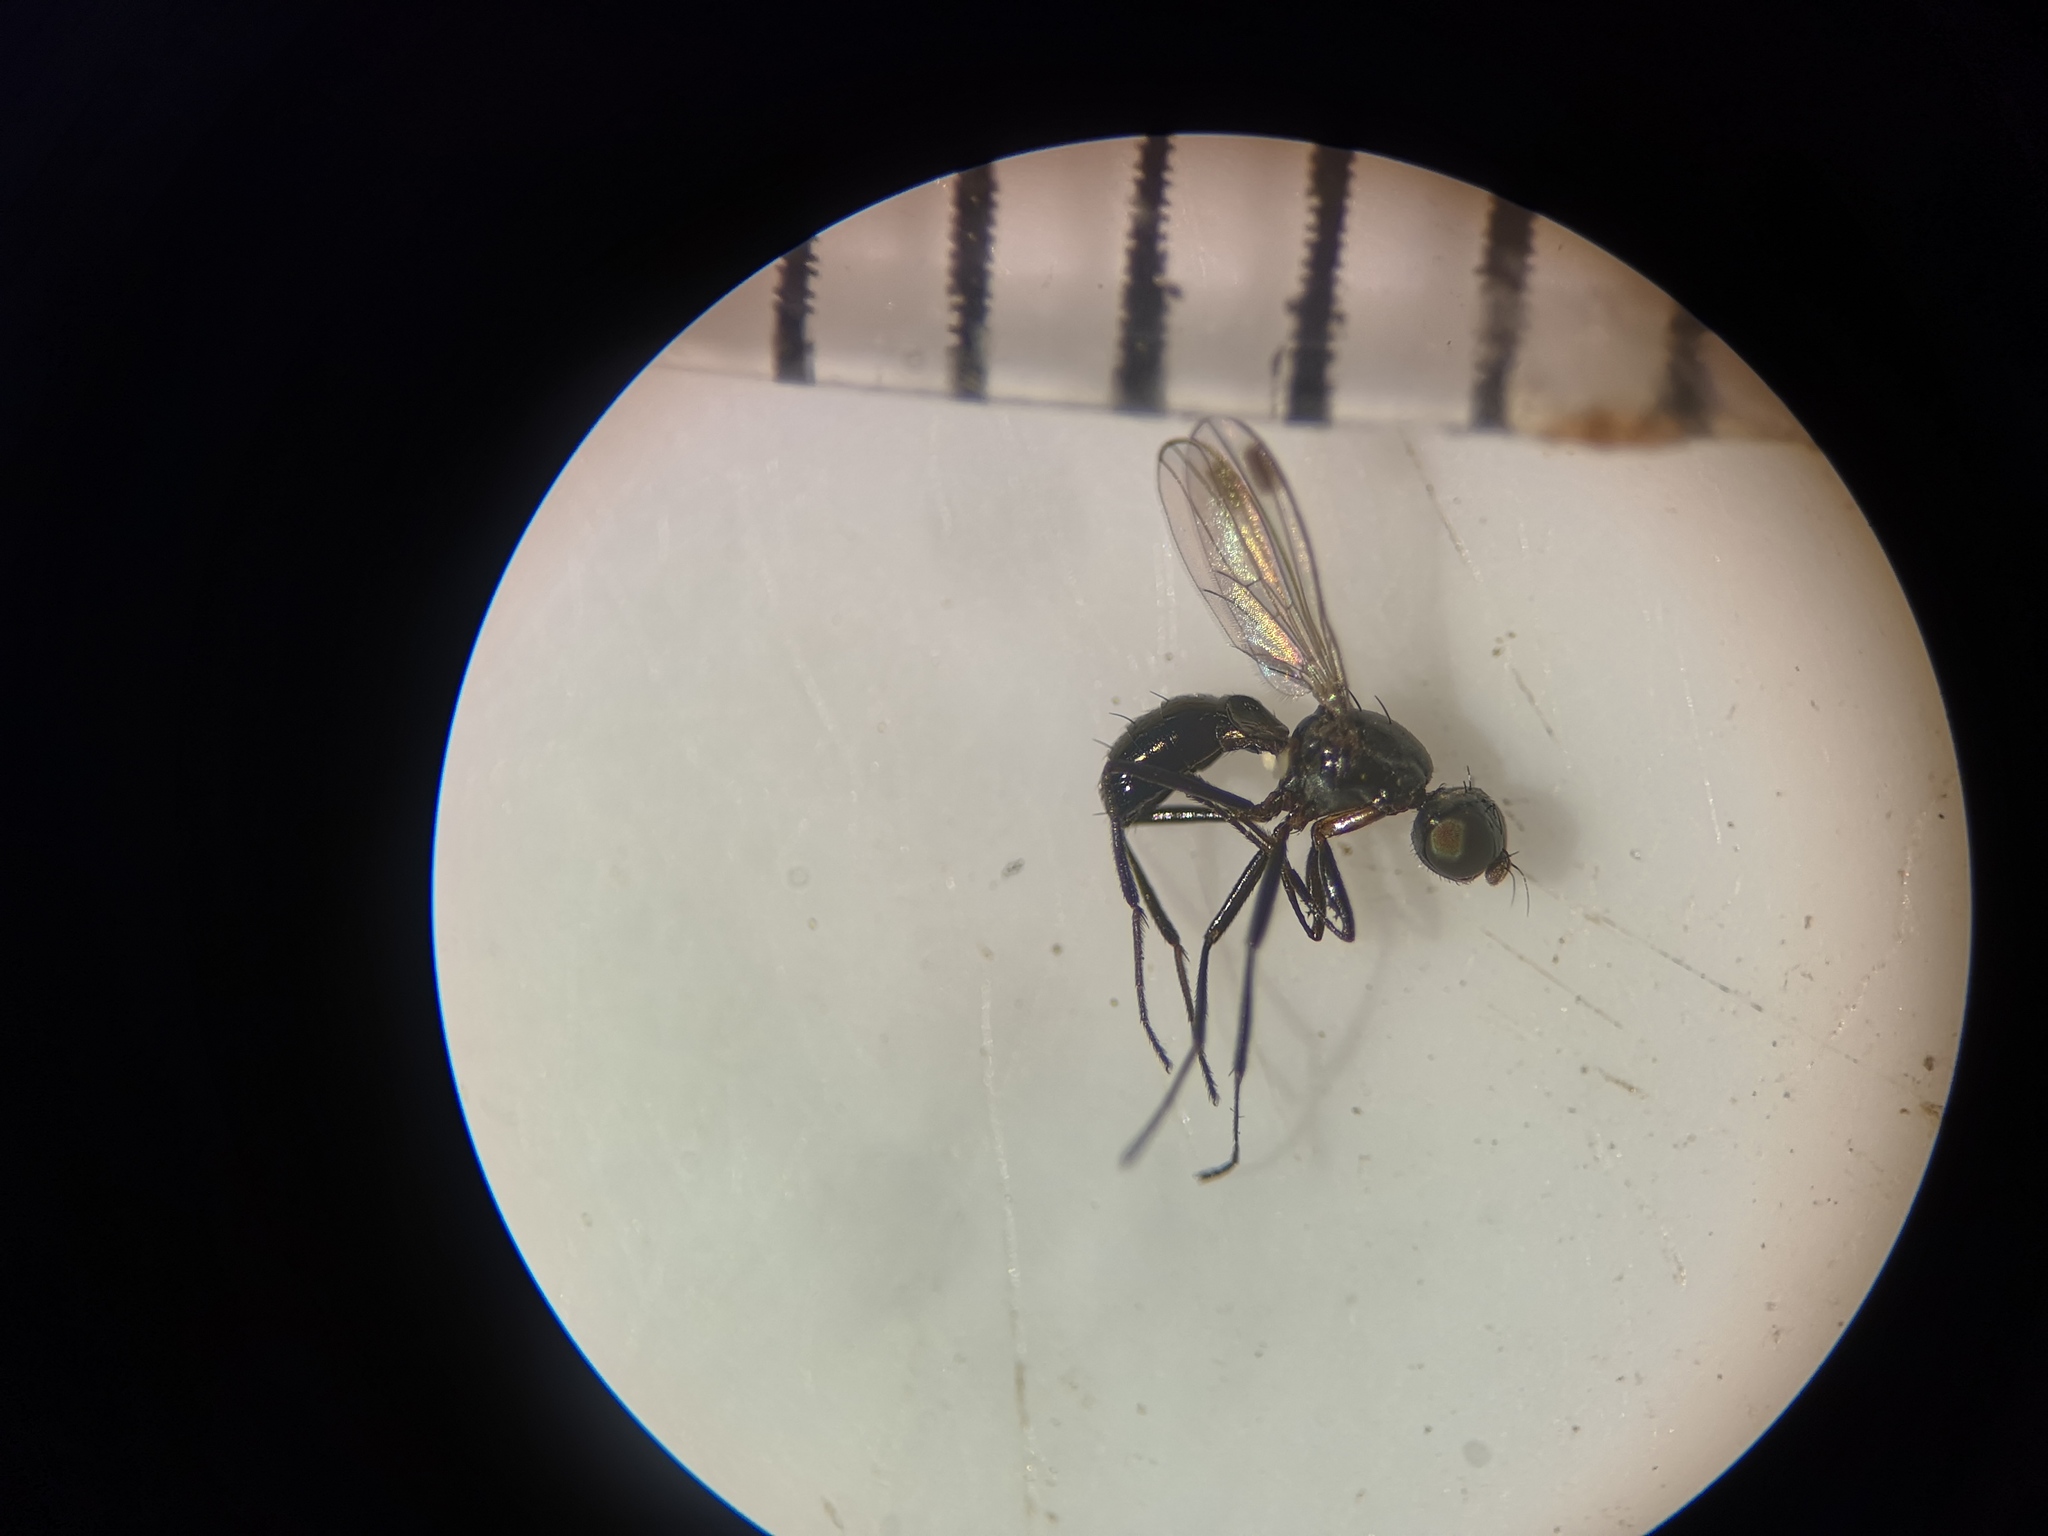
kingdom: Animalia
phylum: Arthropoda
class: Insecta
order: Diptera
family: Sepsidae
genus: Sepsis
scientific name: Sepsis fulgens
